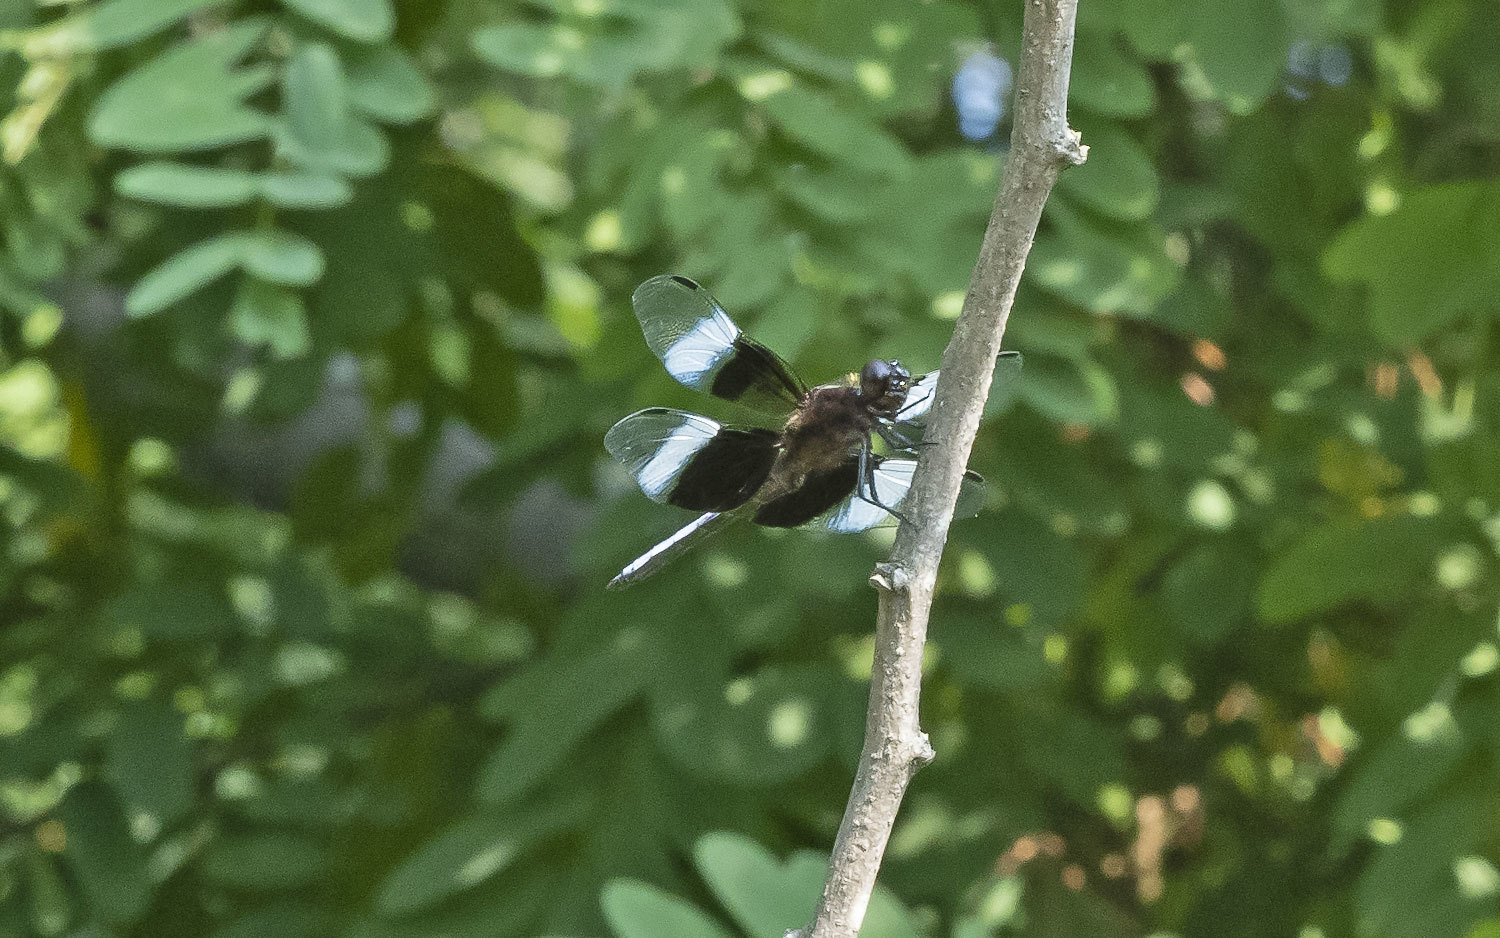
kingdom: Animalia
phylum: Arthropoda
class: Insecta
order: Odonata
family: Libellulidae
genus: Libellula
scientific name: Libellula luctuosa
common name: Widow skimmer
